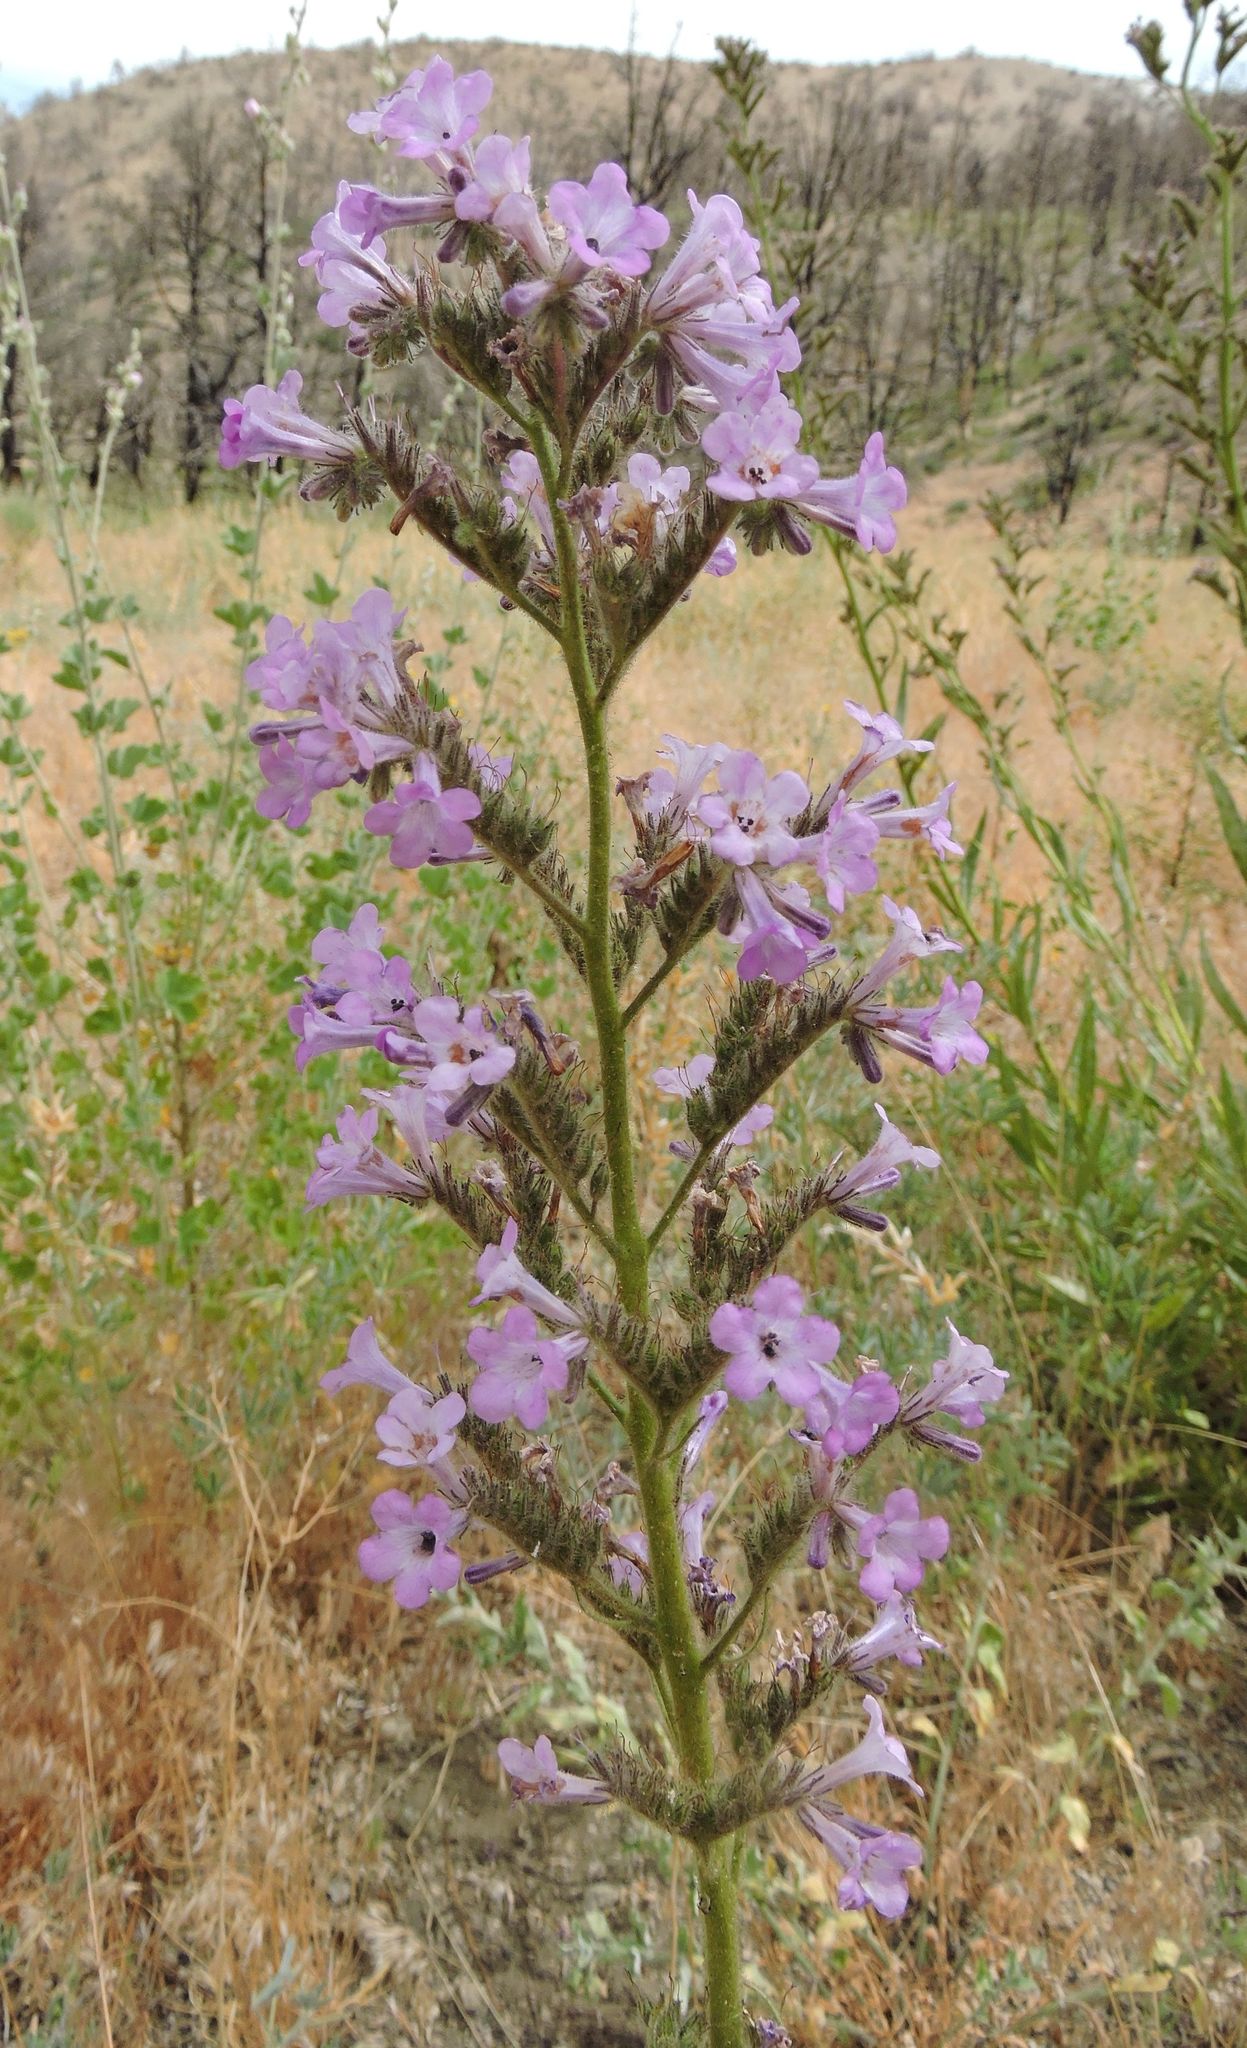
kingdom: Plantae
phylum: Tracheophyta
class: Magnoliopsida
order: Boraginales
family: Namaceae
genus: Turricula
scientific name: Turricula parryi
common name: Poodle-dog-bush
